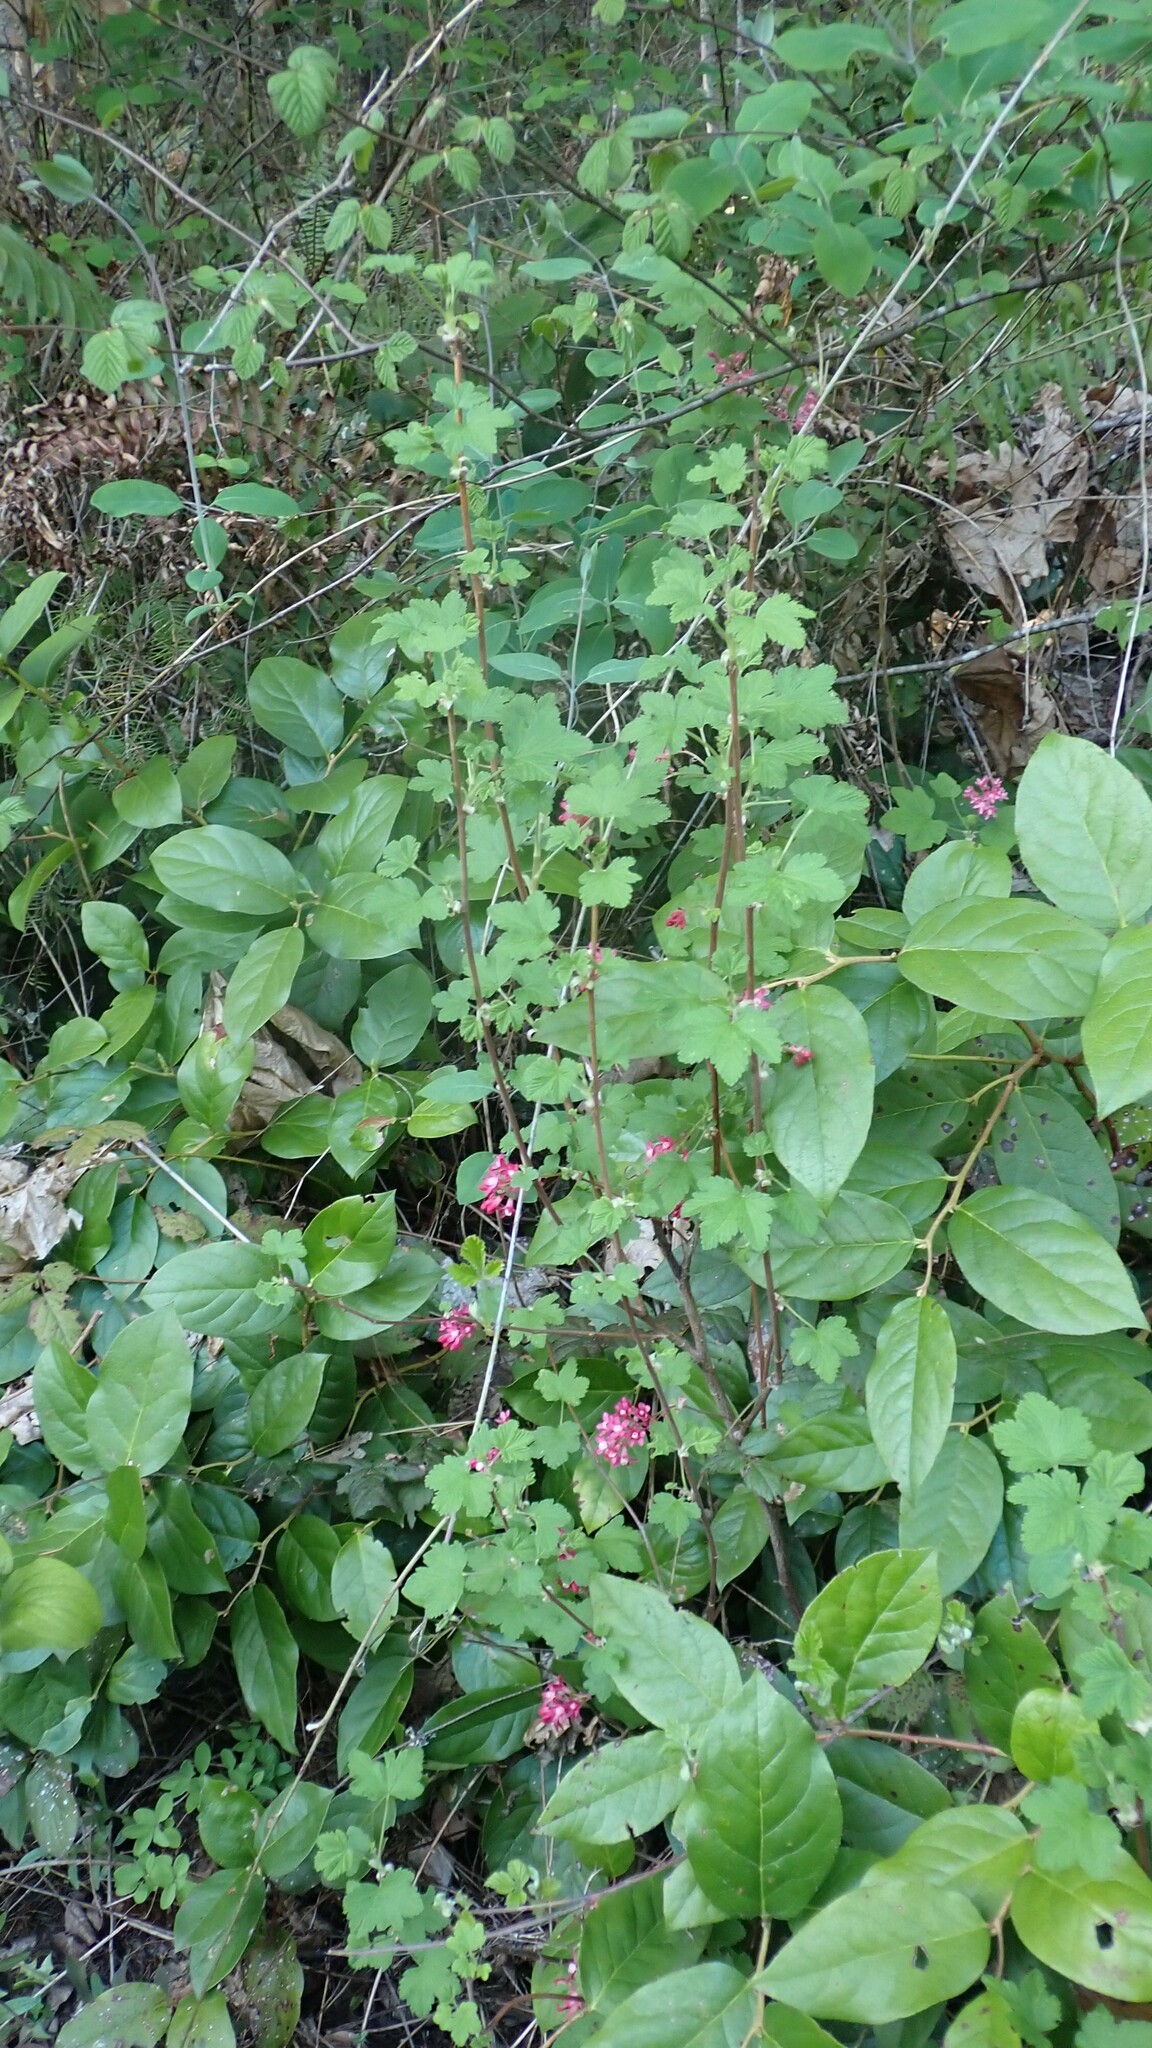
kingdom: Plantae
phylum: Tracheophyta
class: Magnoliopsida
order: Saxifragales
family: Grossulariaceae
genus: Ribes
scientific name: Ribes sanguineum
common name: Flowering currant
